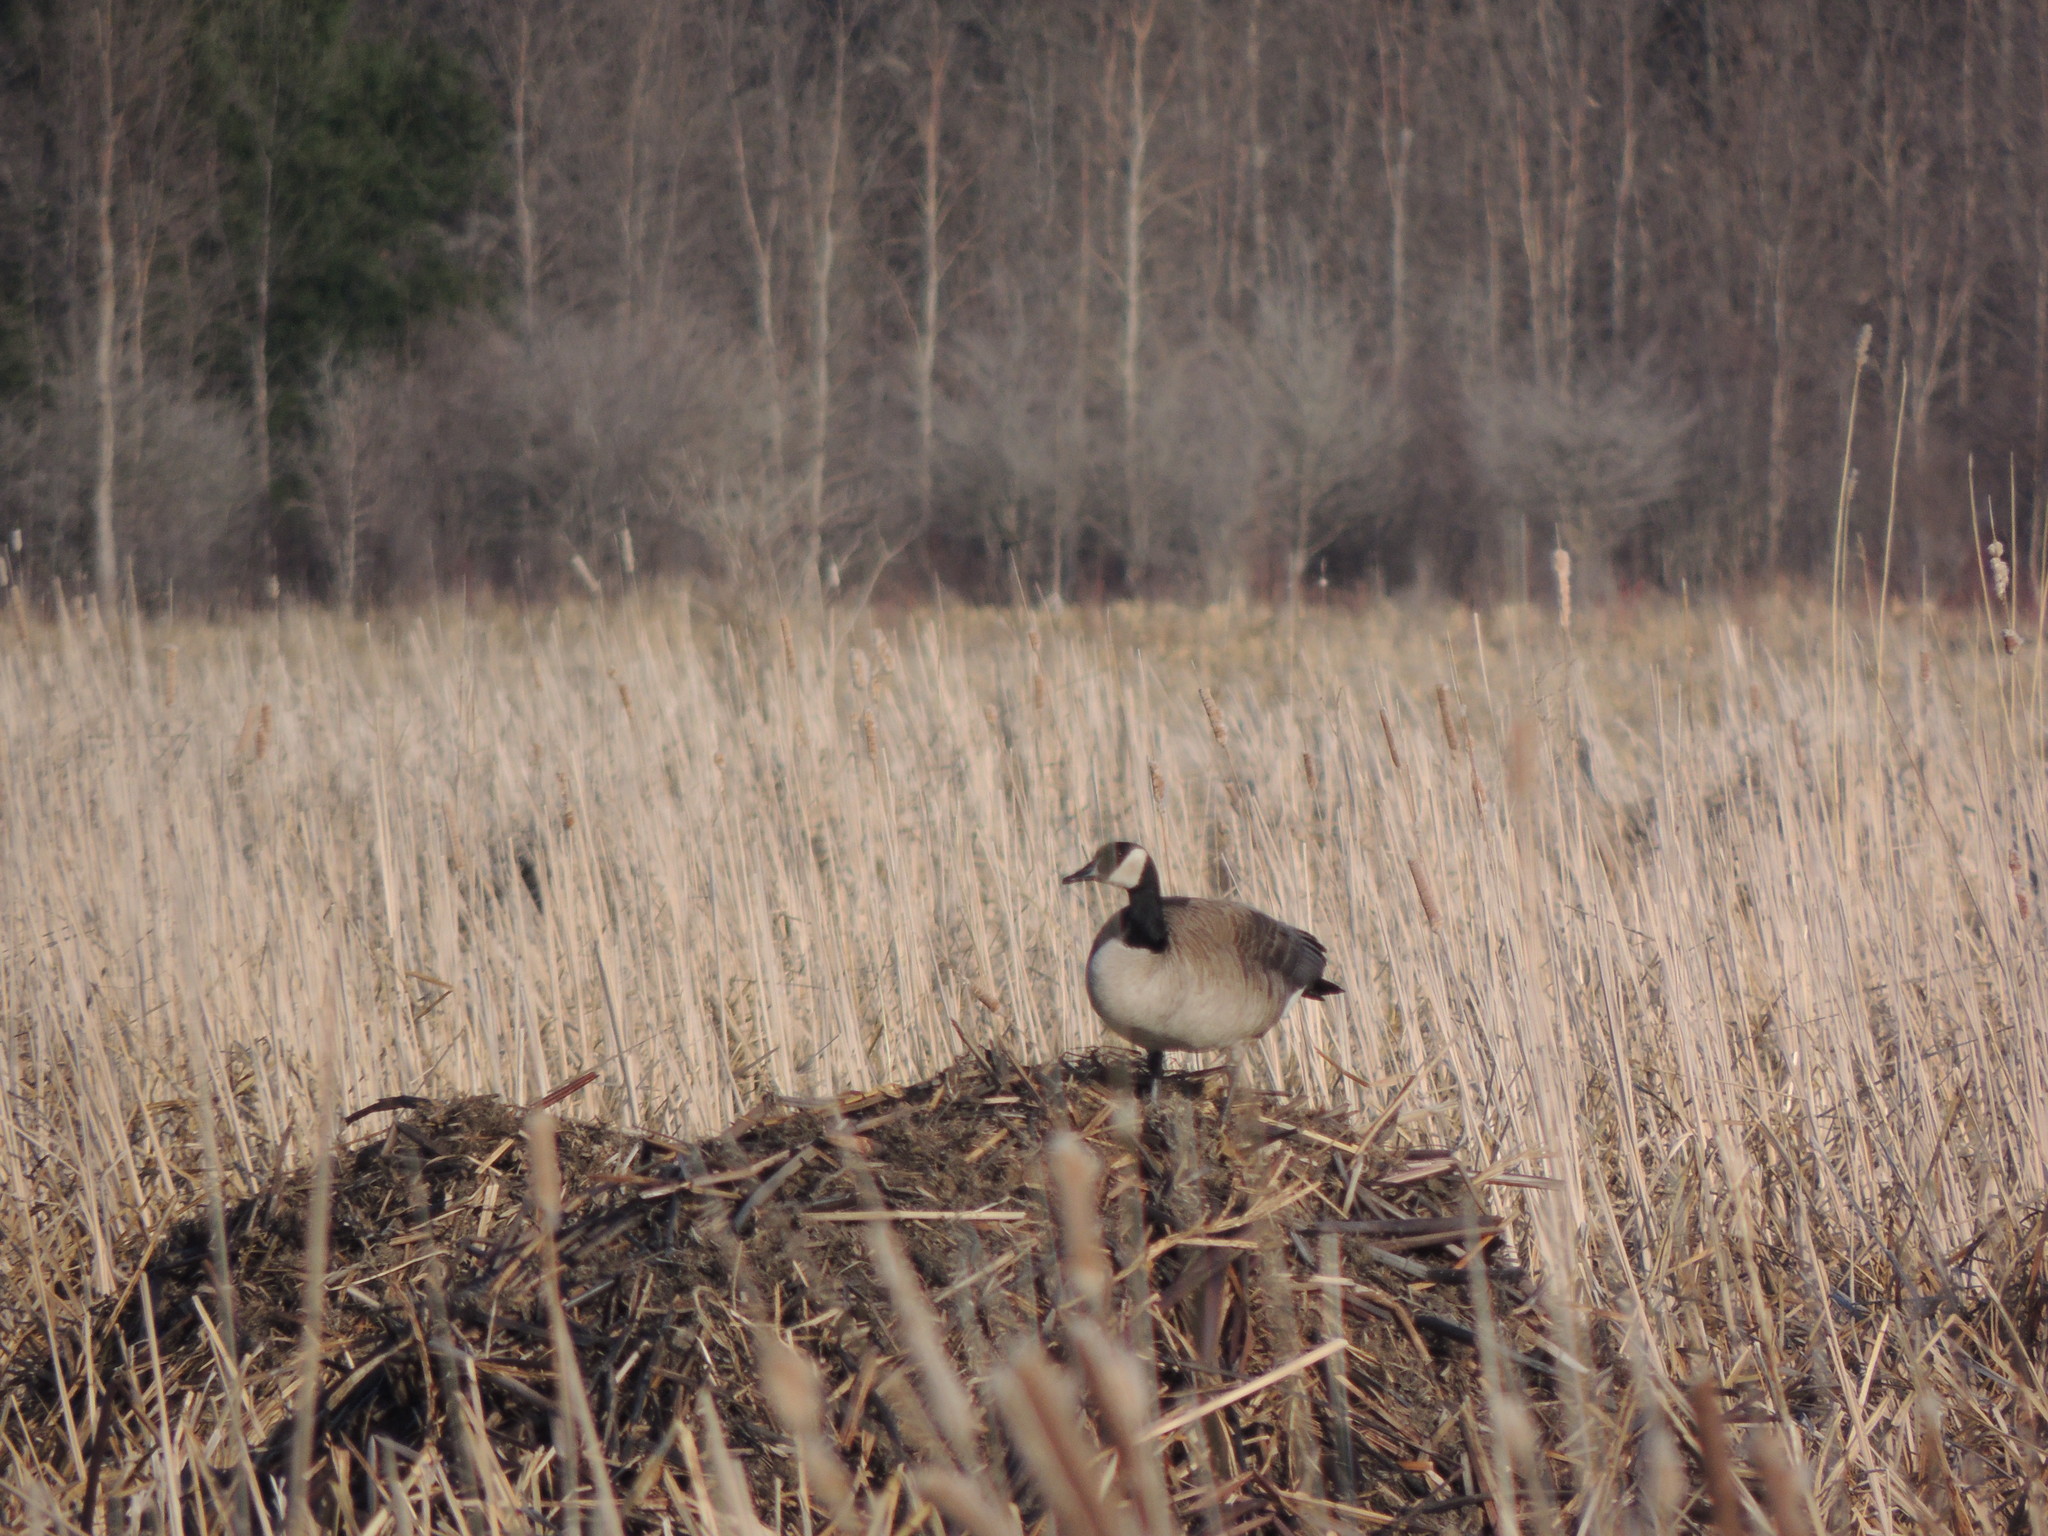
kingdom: Animalia
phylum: Chordata
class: Aves
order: Anseriformes
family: Anatidae
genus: Branta
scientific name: Branta canadensis
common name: Canada goose
